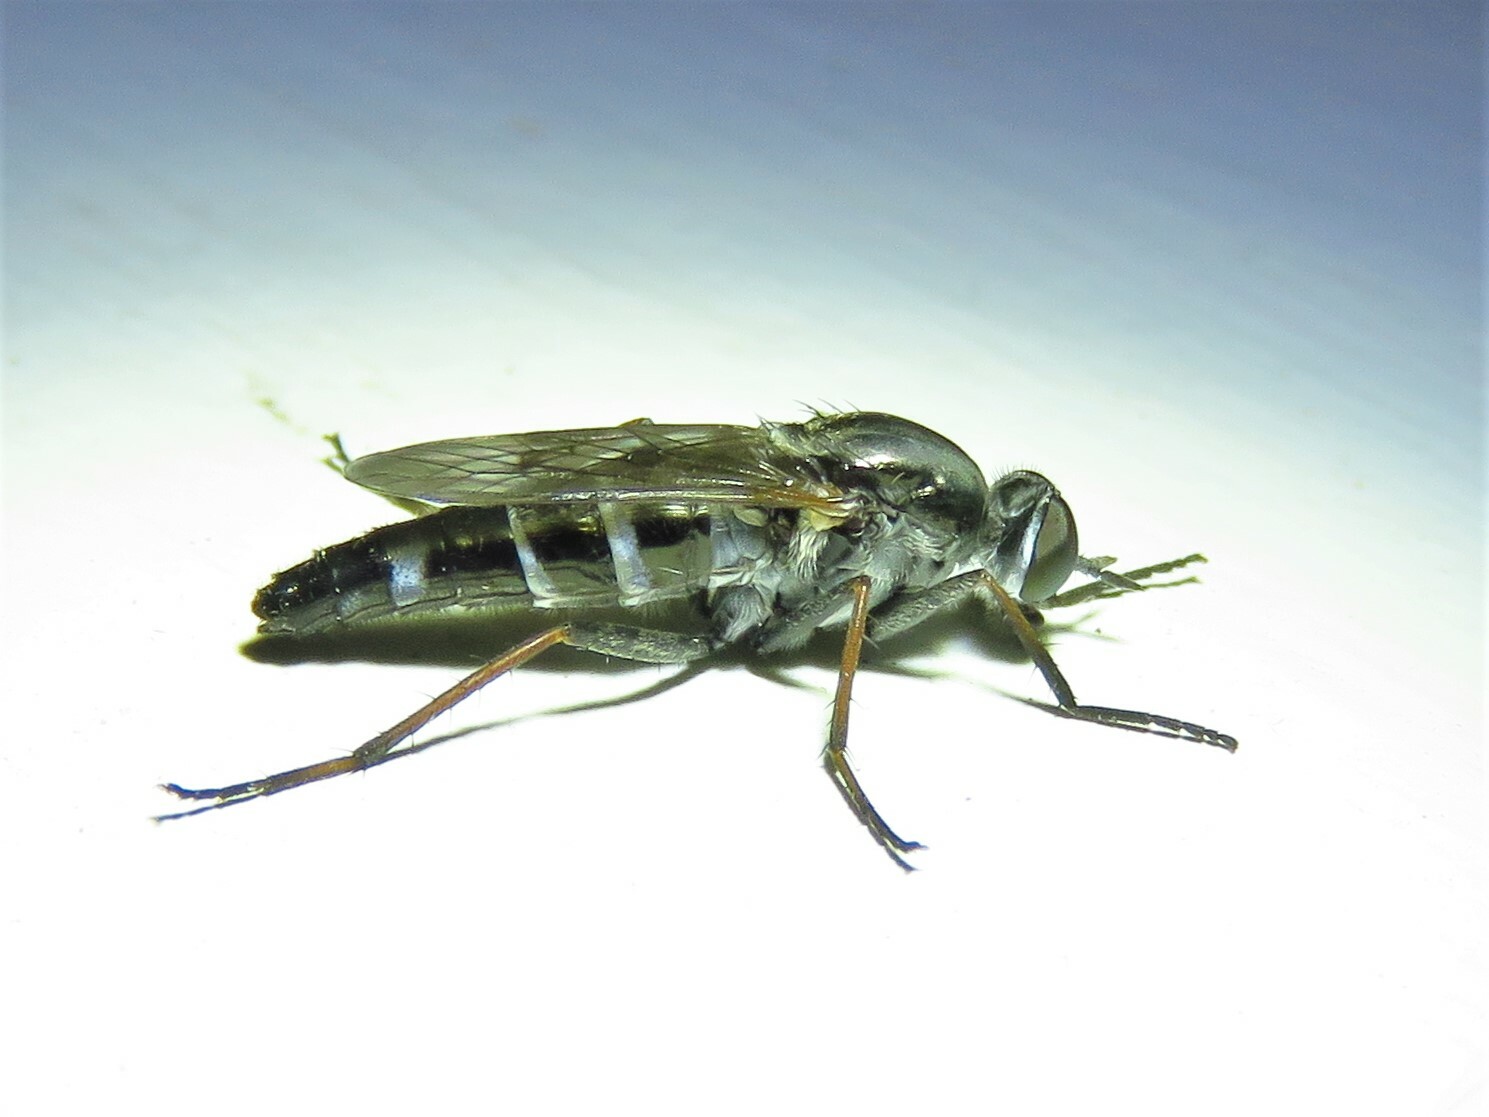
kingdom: Animalia
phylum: Arthropoda
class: Insecta
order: Diptera
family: Therevidae
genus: Ozodiceromya
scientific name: Ozodiceromya notata
